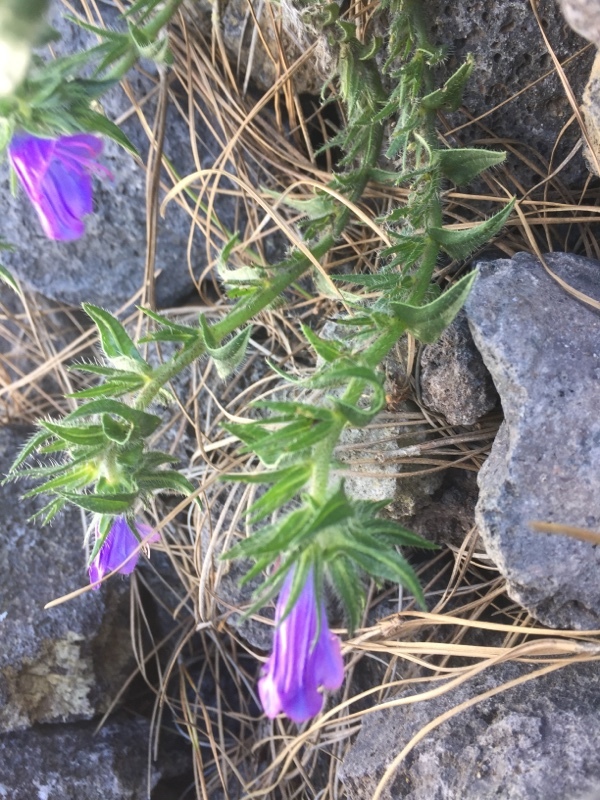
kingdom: Plantae
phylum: Tracheophyta
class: Magnoliopsida
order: Boraginales
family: Boraginaceae
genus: Echium
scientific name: Echium plantagineum
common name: Purple viper's-bugloss
